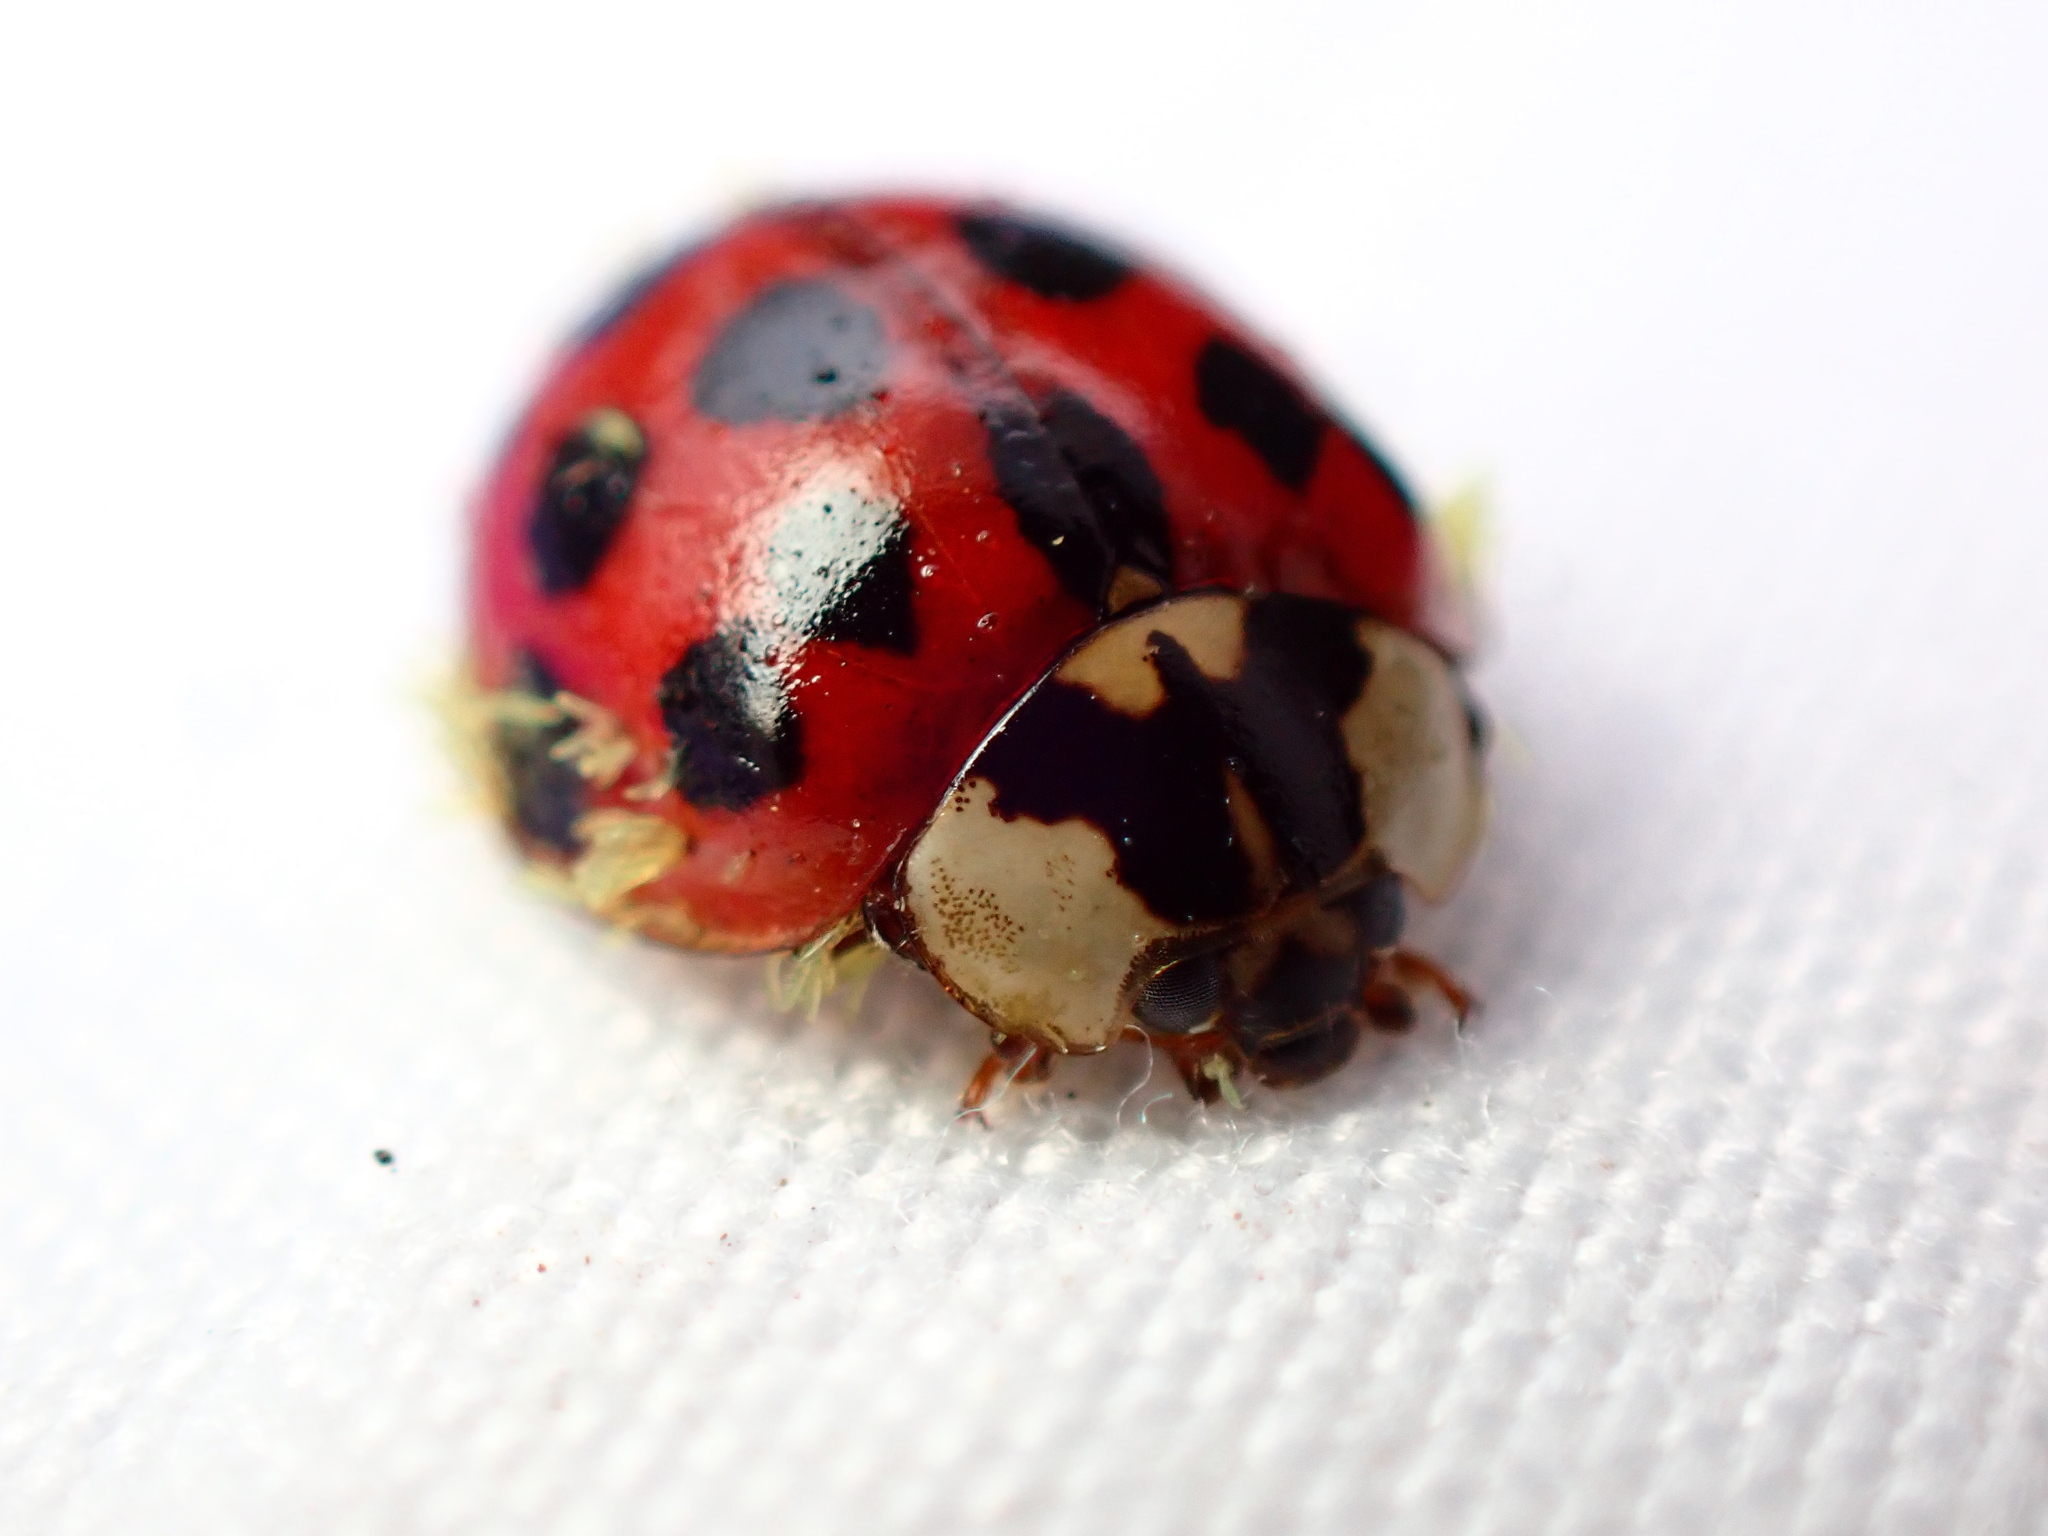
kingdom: Animalia
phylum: Arthropoda
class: Insecta
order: Coleoptera
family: Coccinellidae
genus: Harmonia
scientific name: Harmonia axyridis
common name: Harlequin ladybird
